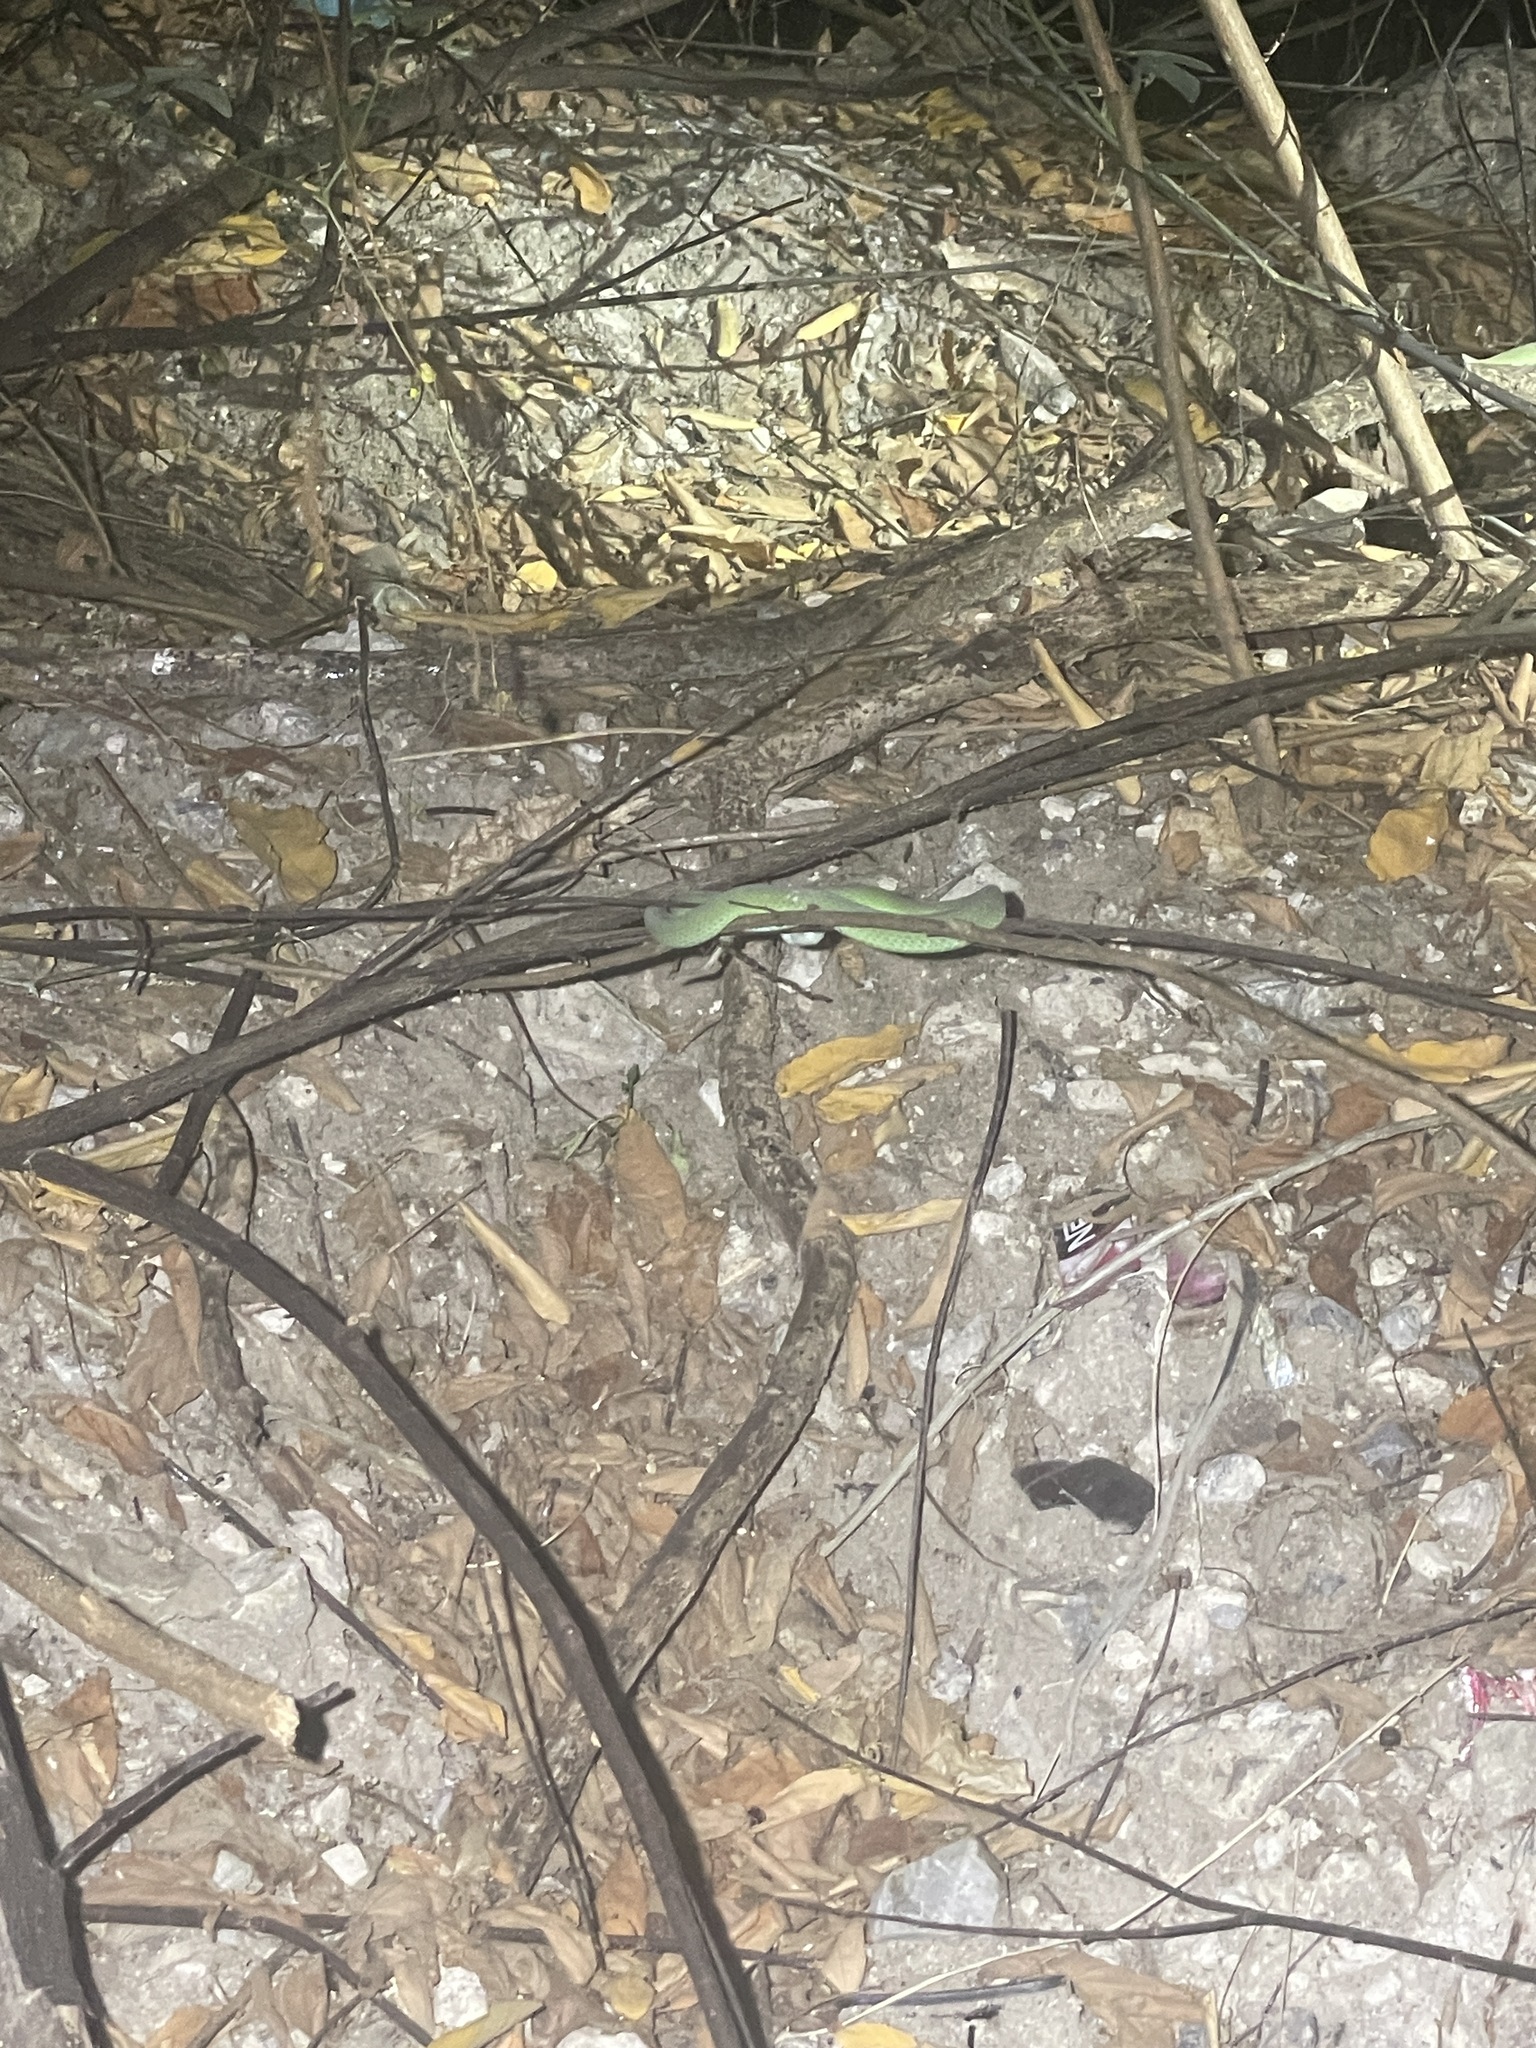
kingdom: Animalia
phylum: Chordata
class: Squamata
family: Viperidae
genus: Trimeresurus
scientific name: Trimeresurus macrops
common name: Kramer's pit viper
